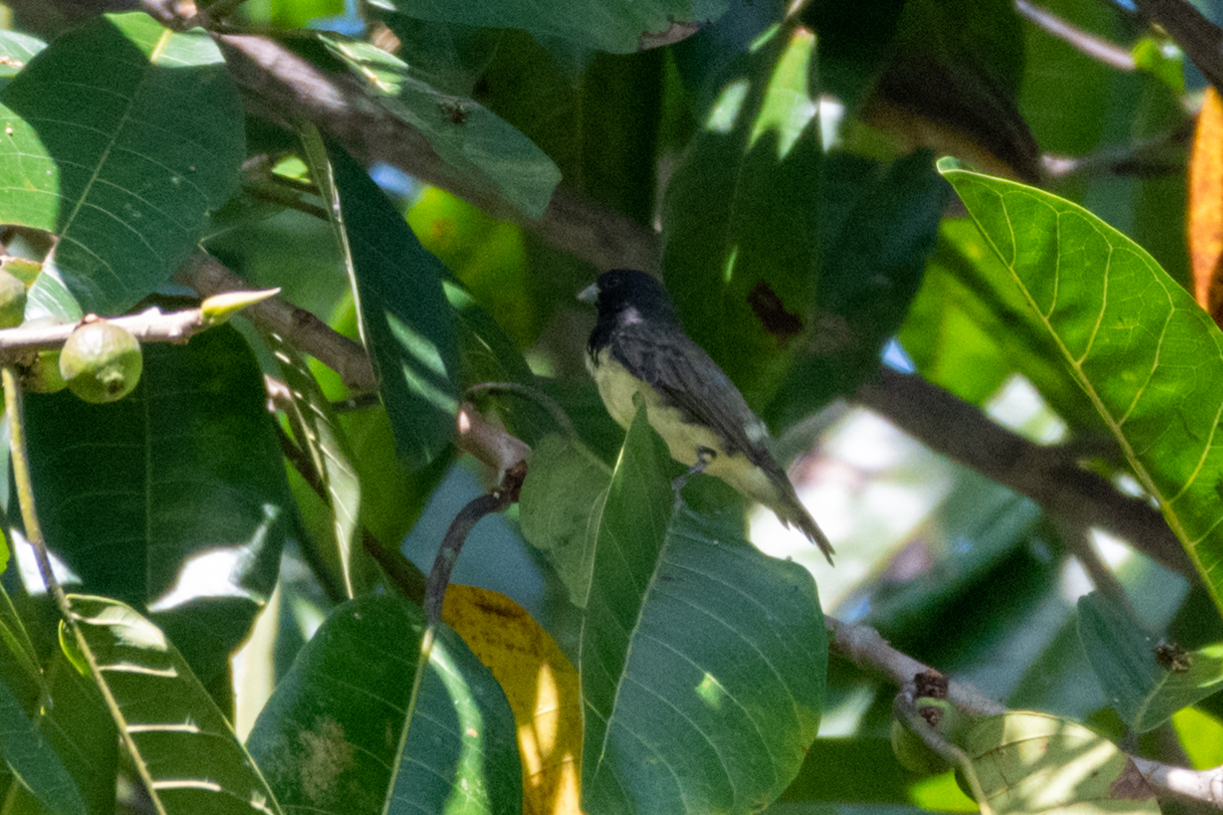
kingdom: Animalia
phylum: Chordata
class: Aves
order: Passeriformes
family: Thraupidae
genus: Sporophila
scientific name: Sporophila nigricollis
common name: Yellow-bellied seedeater
